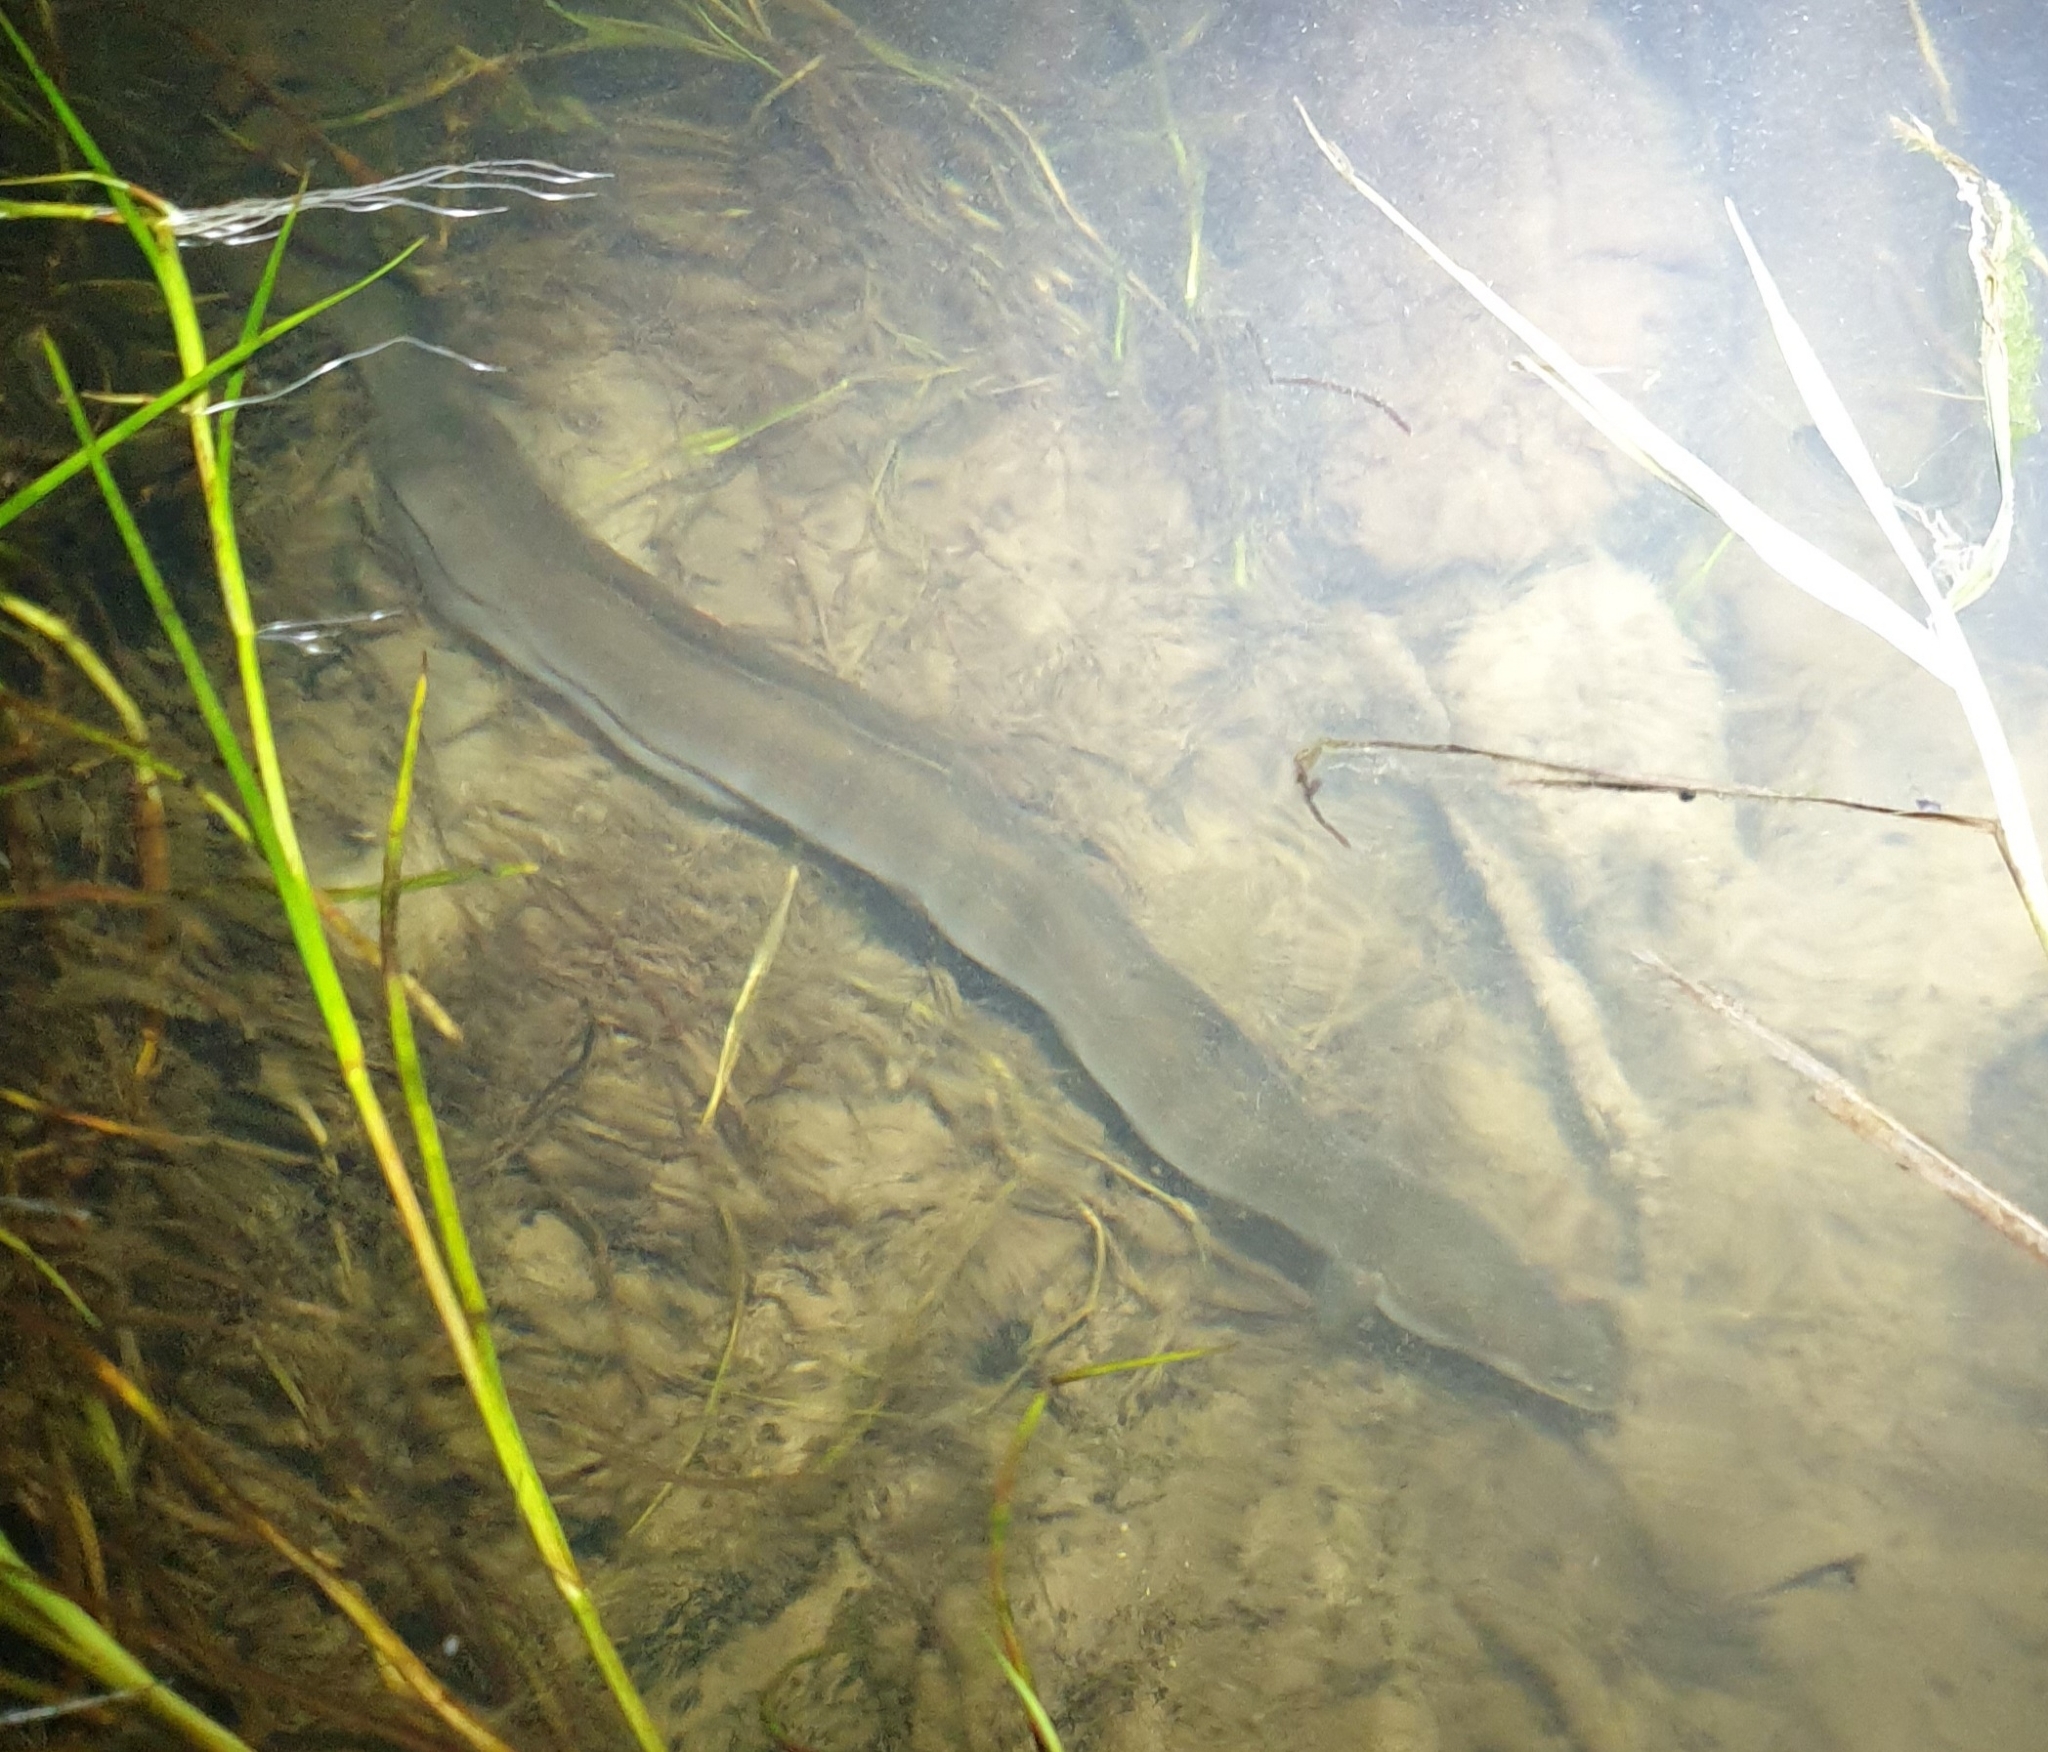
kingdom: Animalia
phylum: Chordata
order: Anguilliformes
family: Anguillidae
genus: Anguilla
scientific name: Anguilla australis
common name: Shortfin eel
